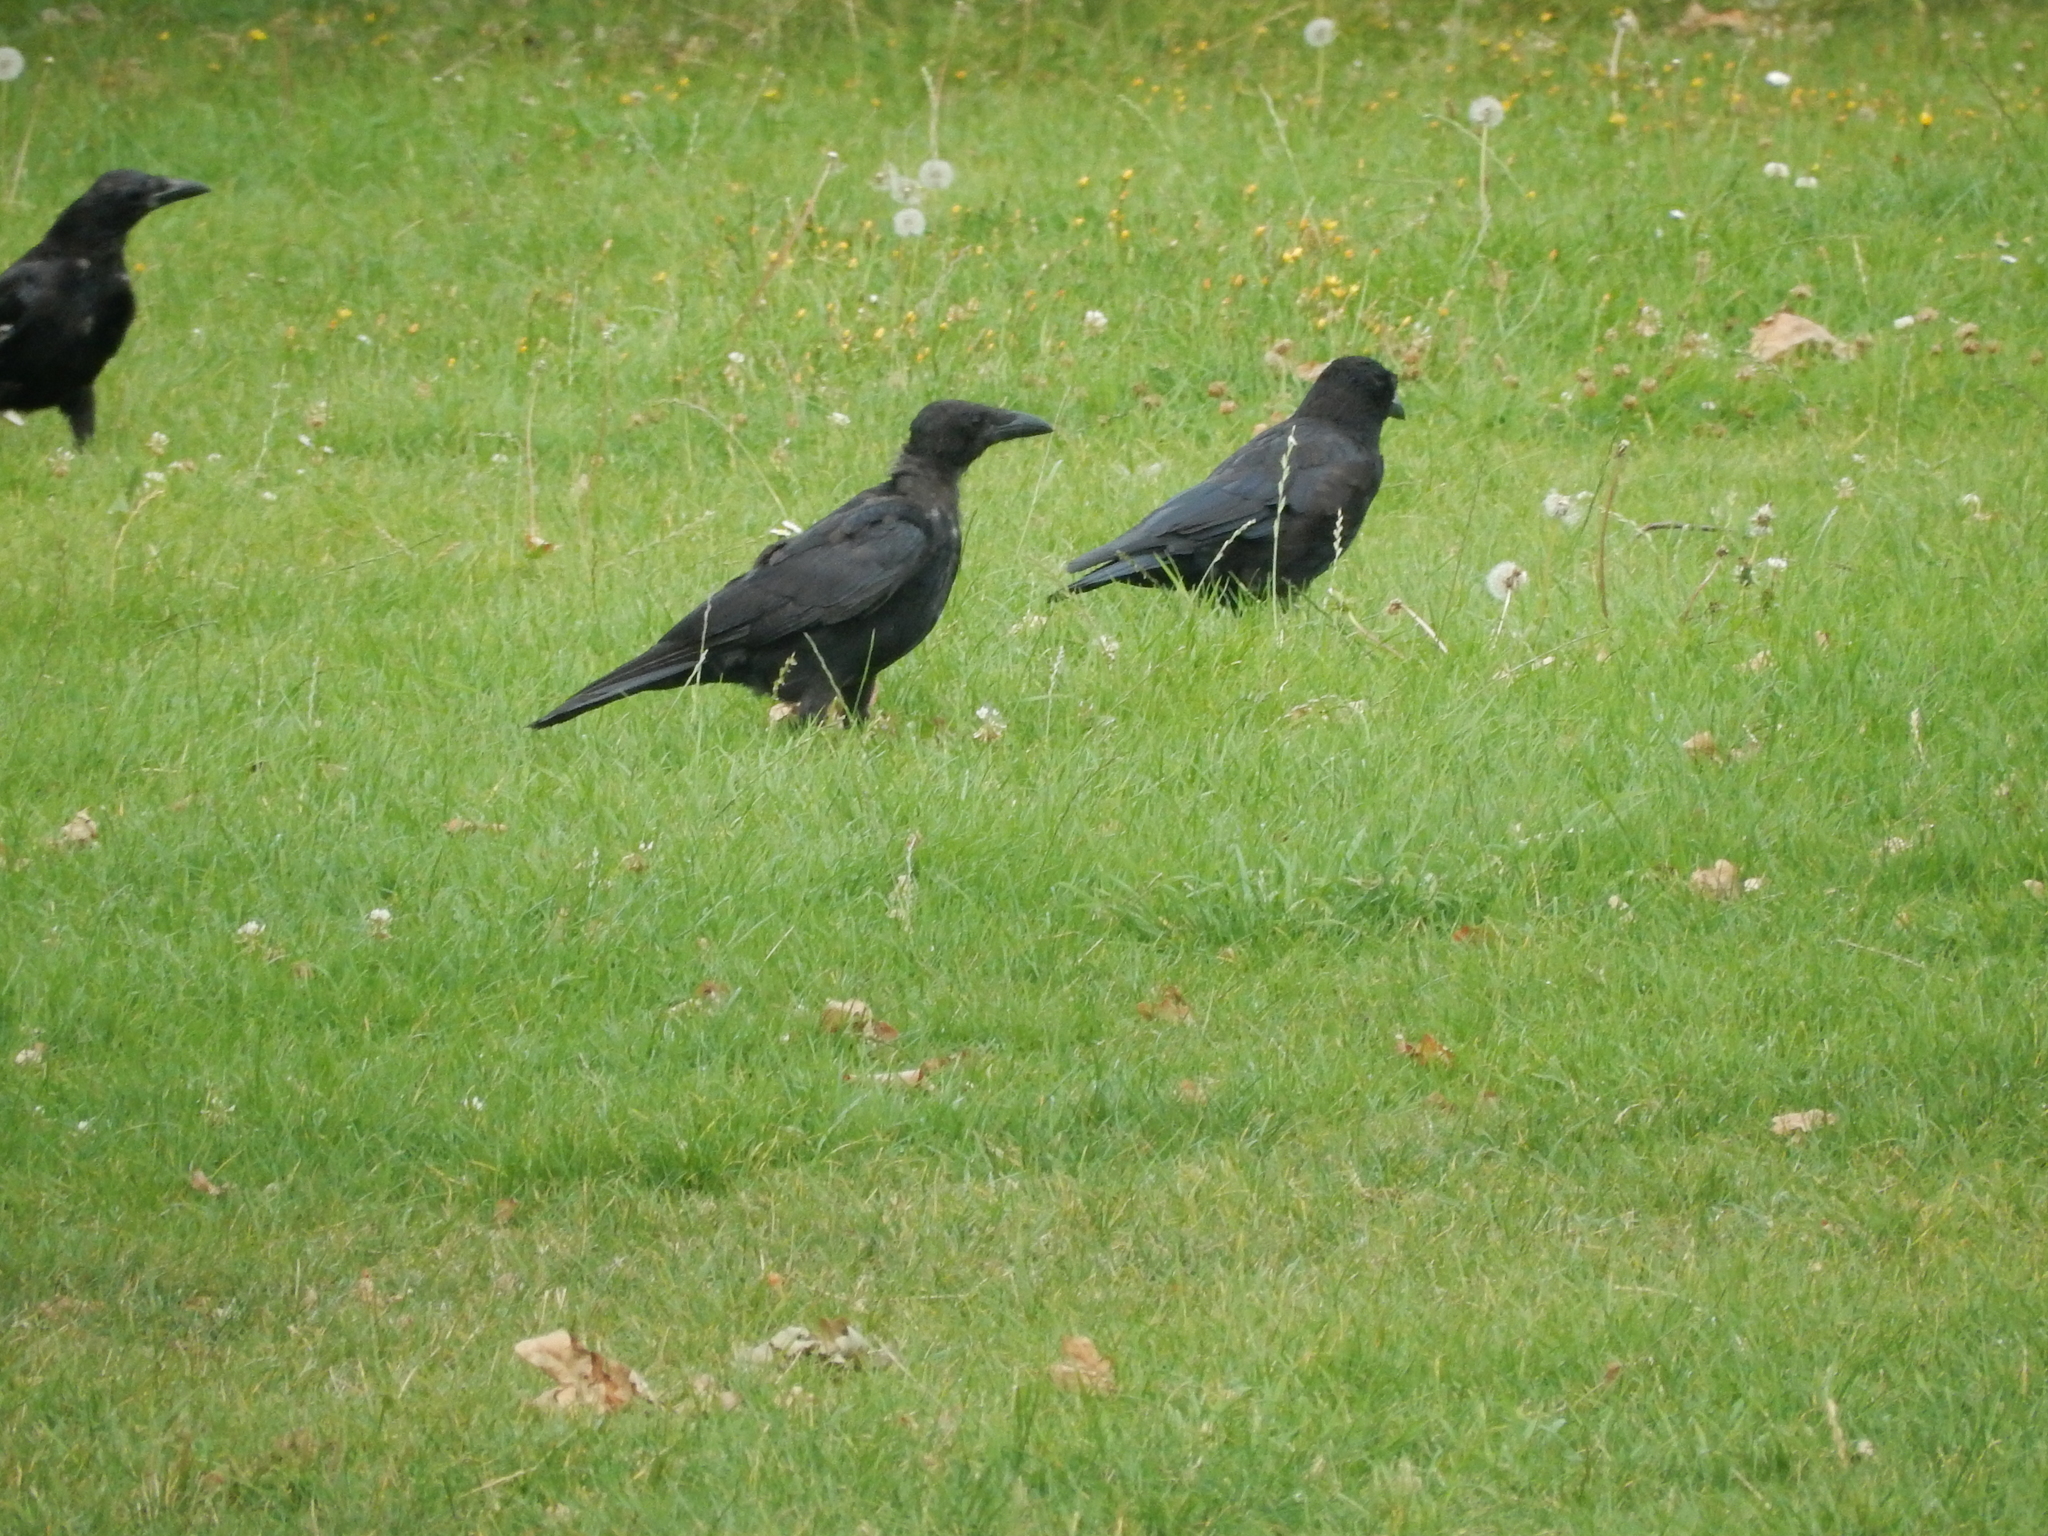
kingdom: Animalia
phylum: Chordata
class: Aves
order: Passeriformes
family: Corvidae
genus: Corvus
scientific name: Corvus corone
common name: Carrion crow
